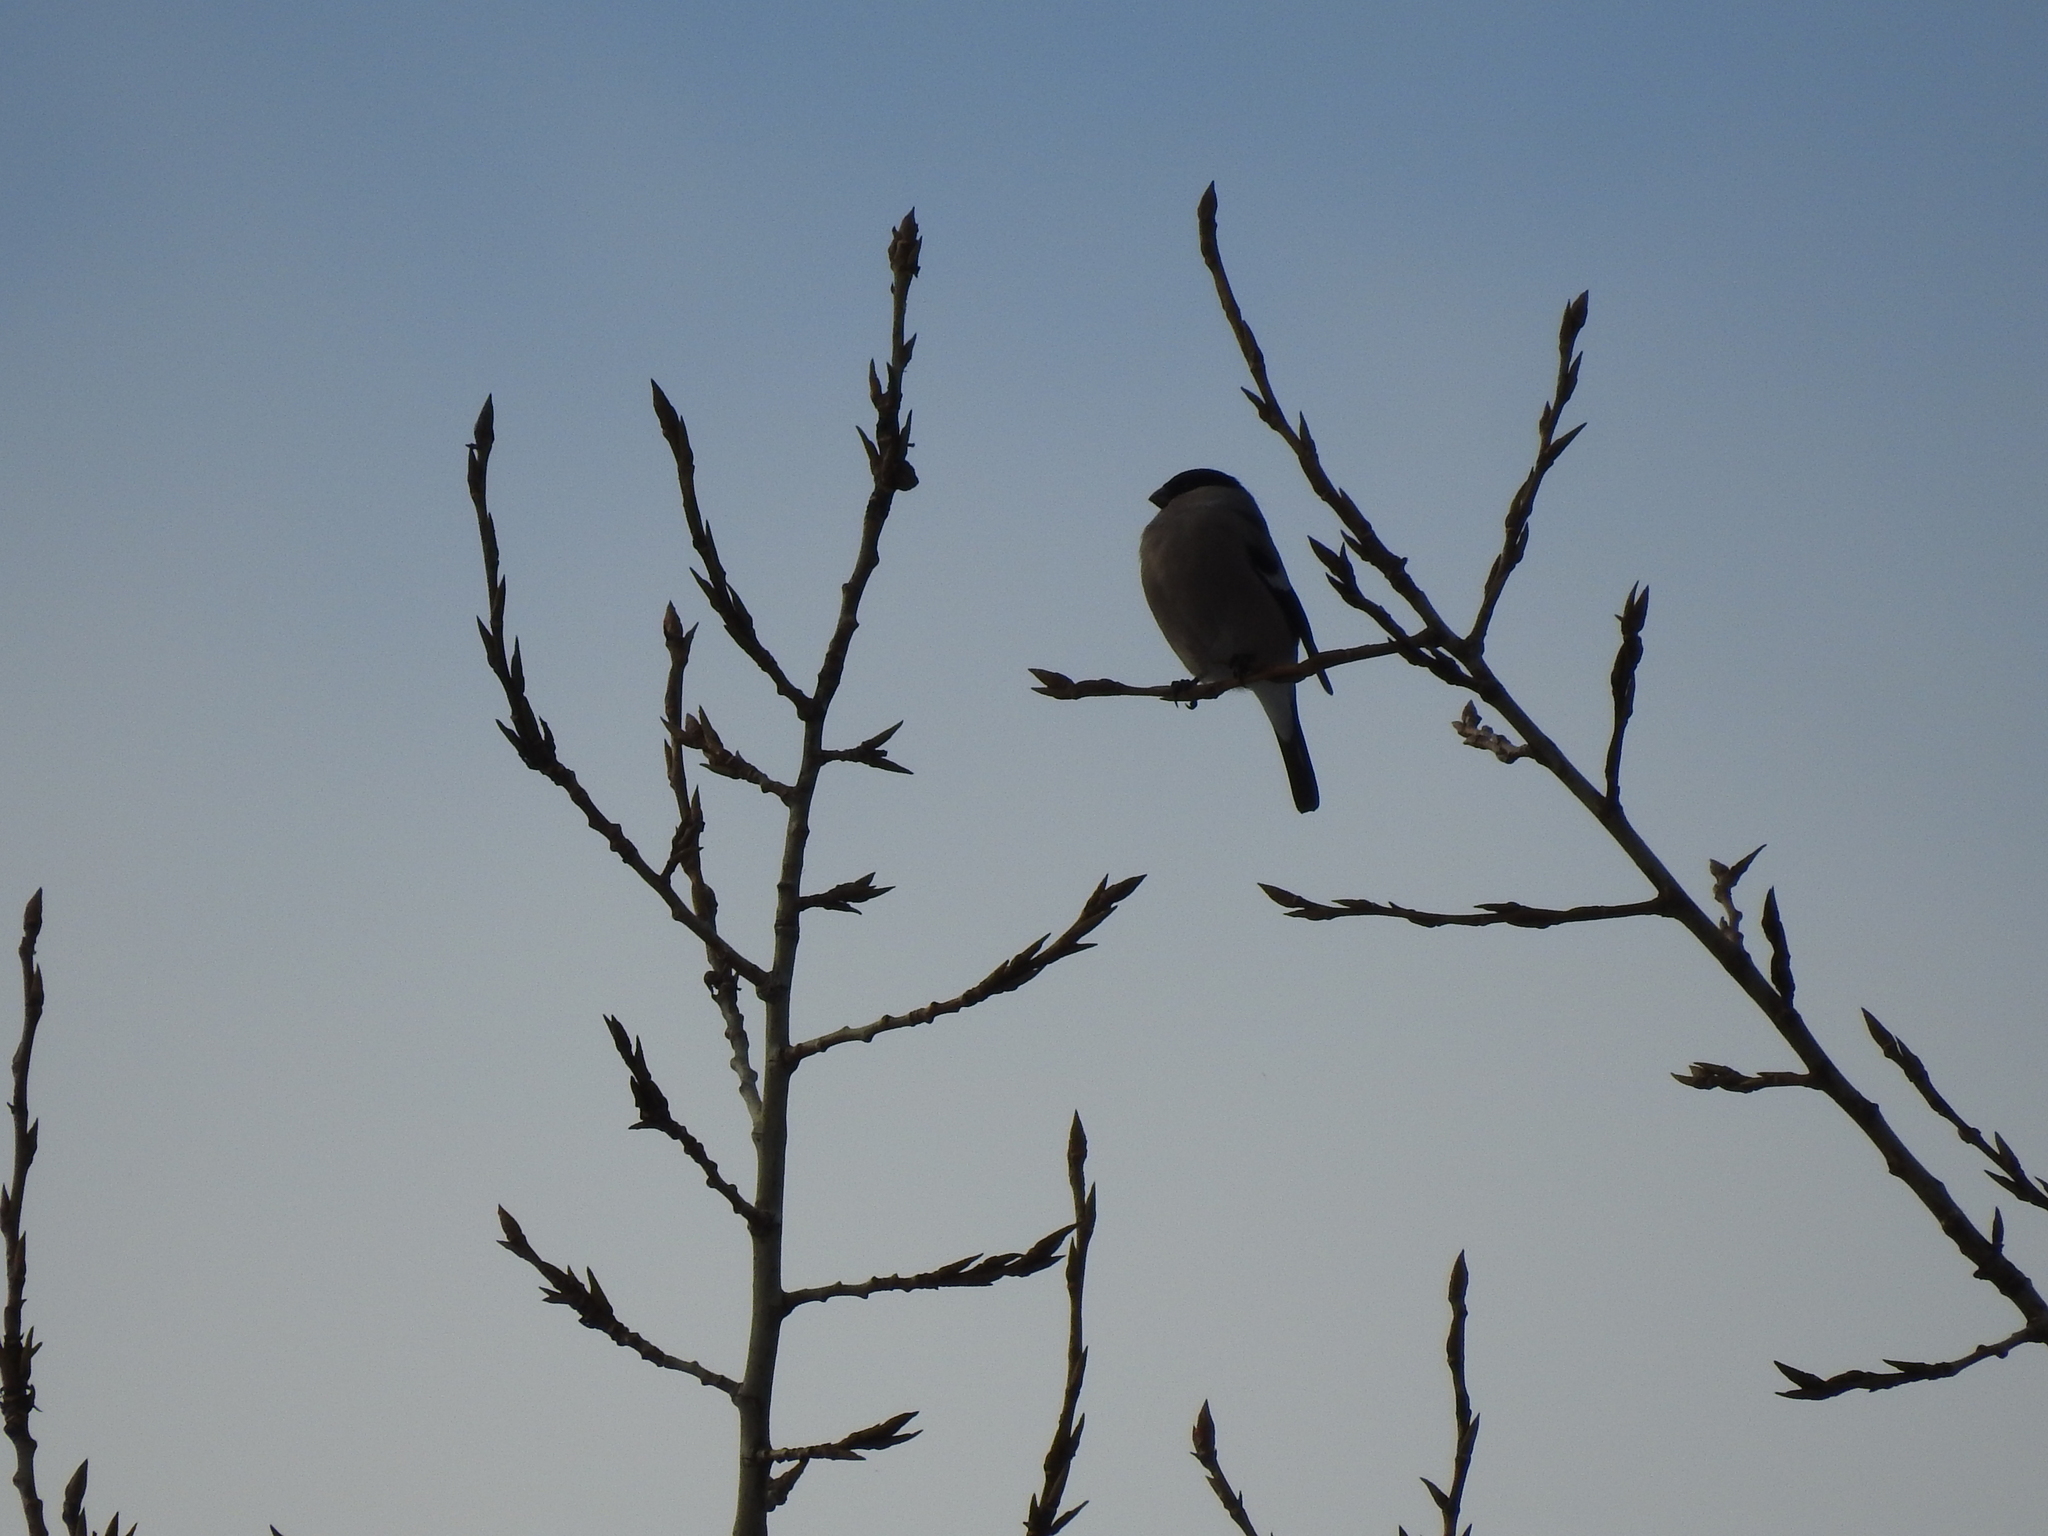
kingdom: Animalia
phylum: Chordata
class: Aves
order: Passeriformes
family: Fringillidae
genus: Pyrrhula
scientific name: Pyrrhula pyrrhula
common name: Eurasian bullfinch
